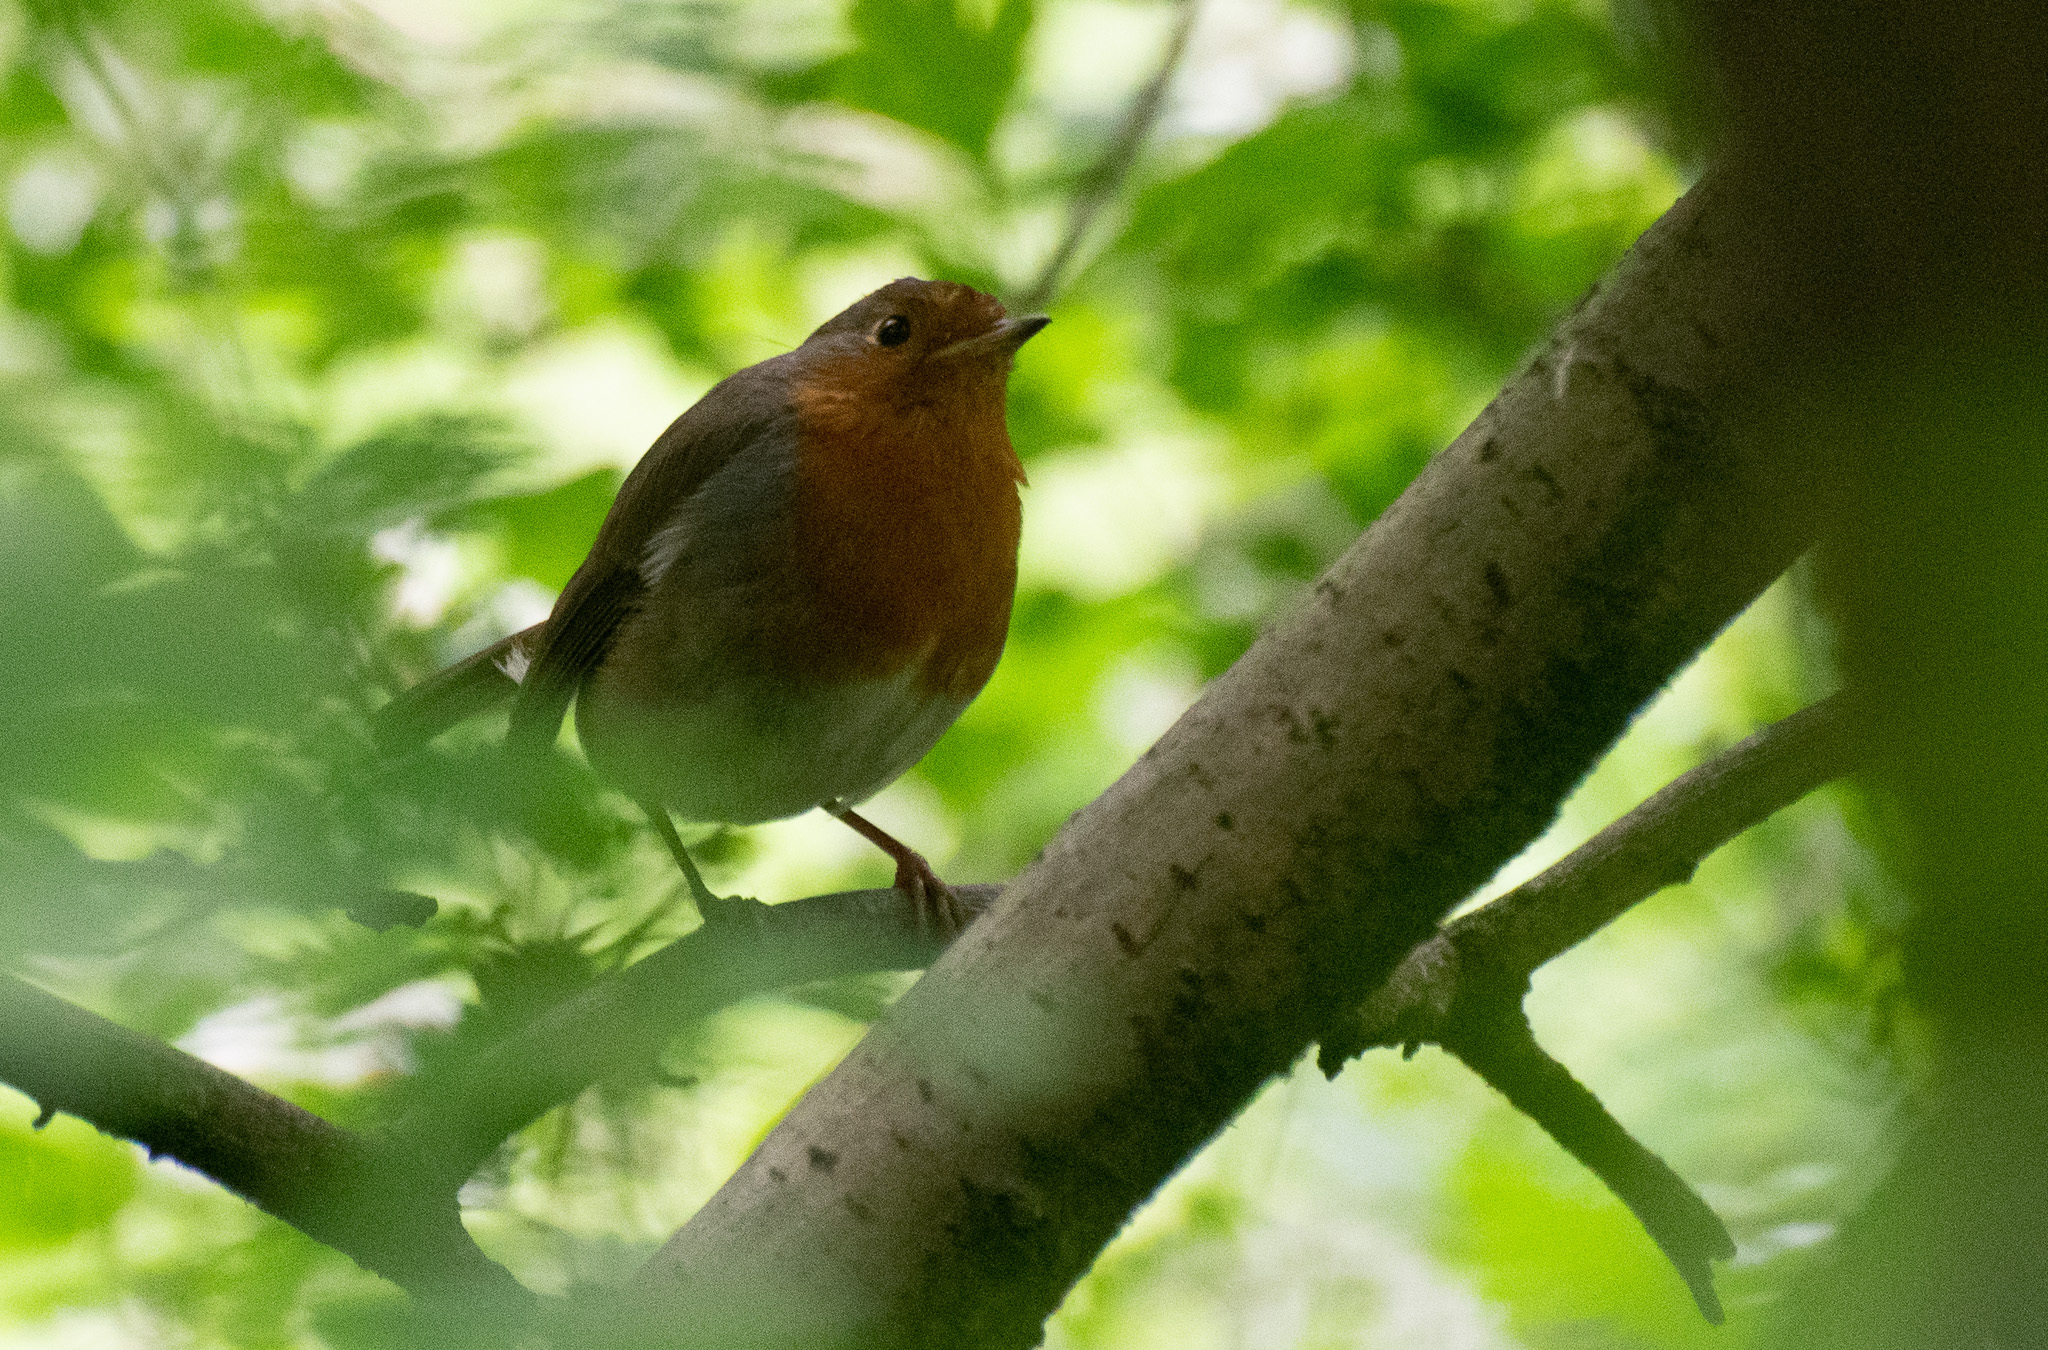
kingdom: Animalia
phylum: Chordata
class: Aves
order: Passeriformes
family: Muscicapidae
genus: Erithacus
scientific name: Erithacus rubecula
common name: European robin
